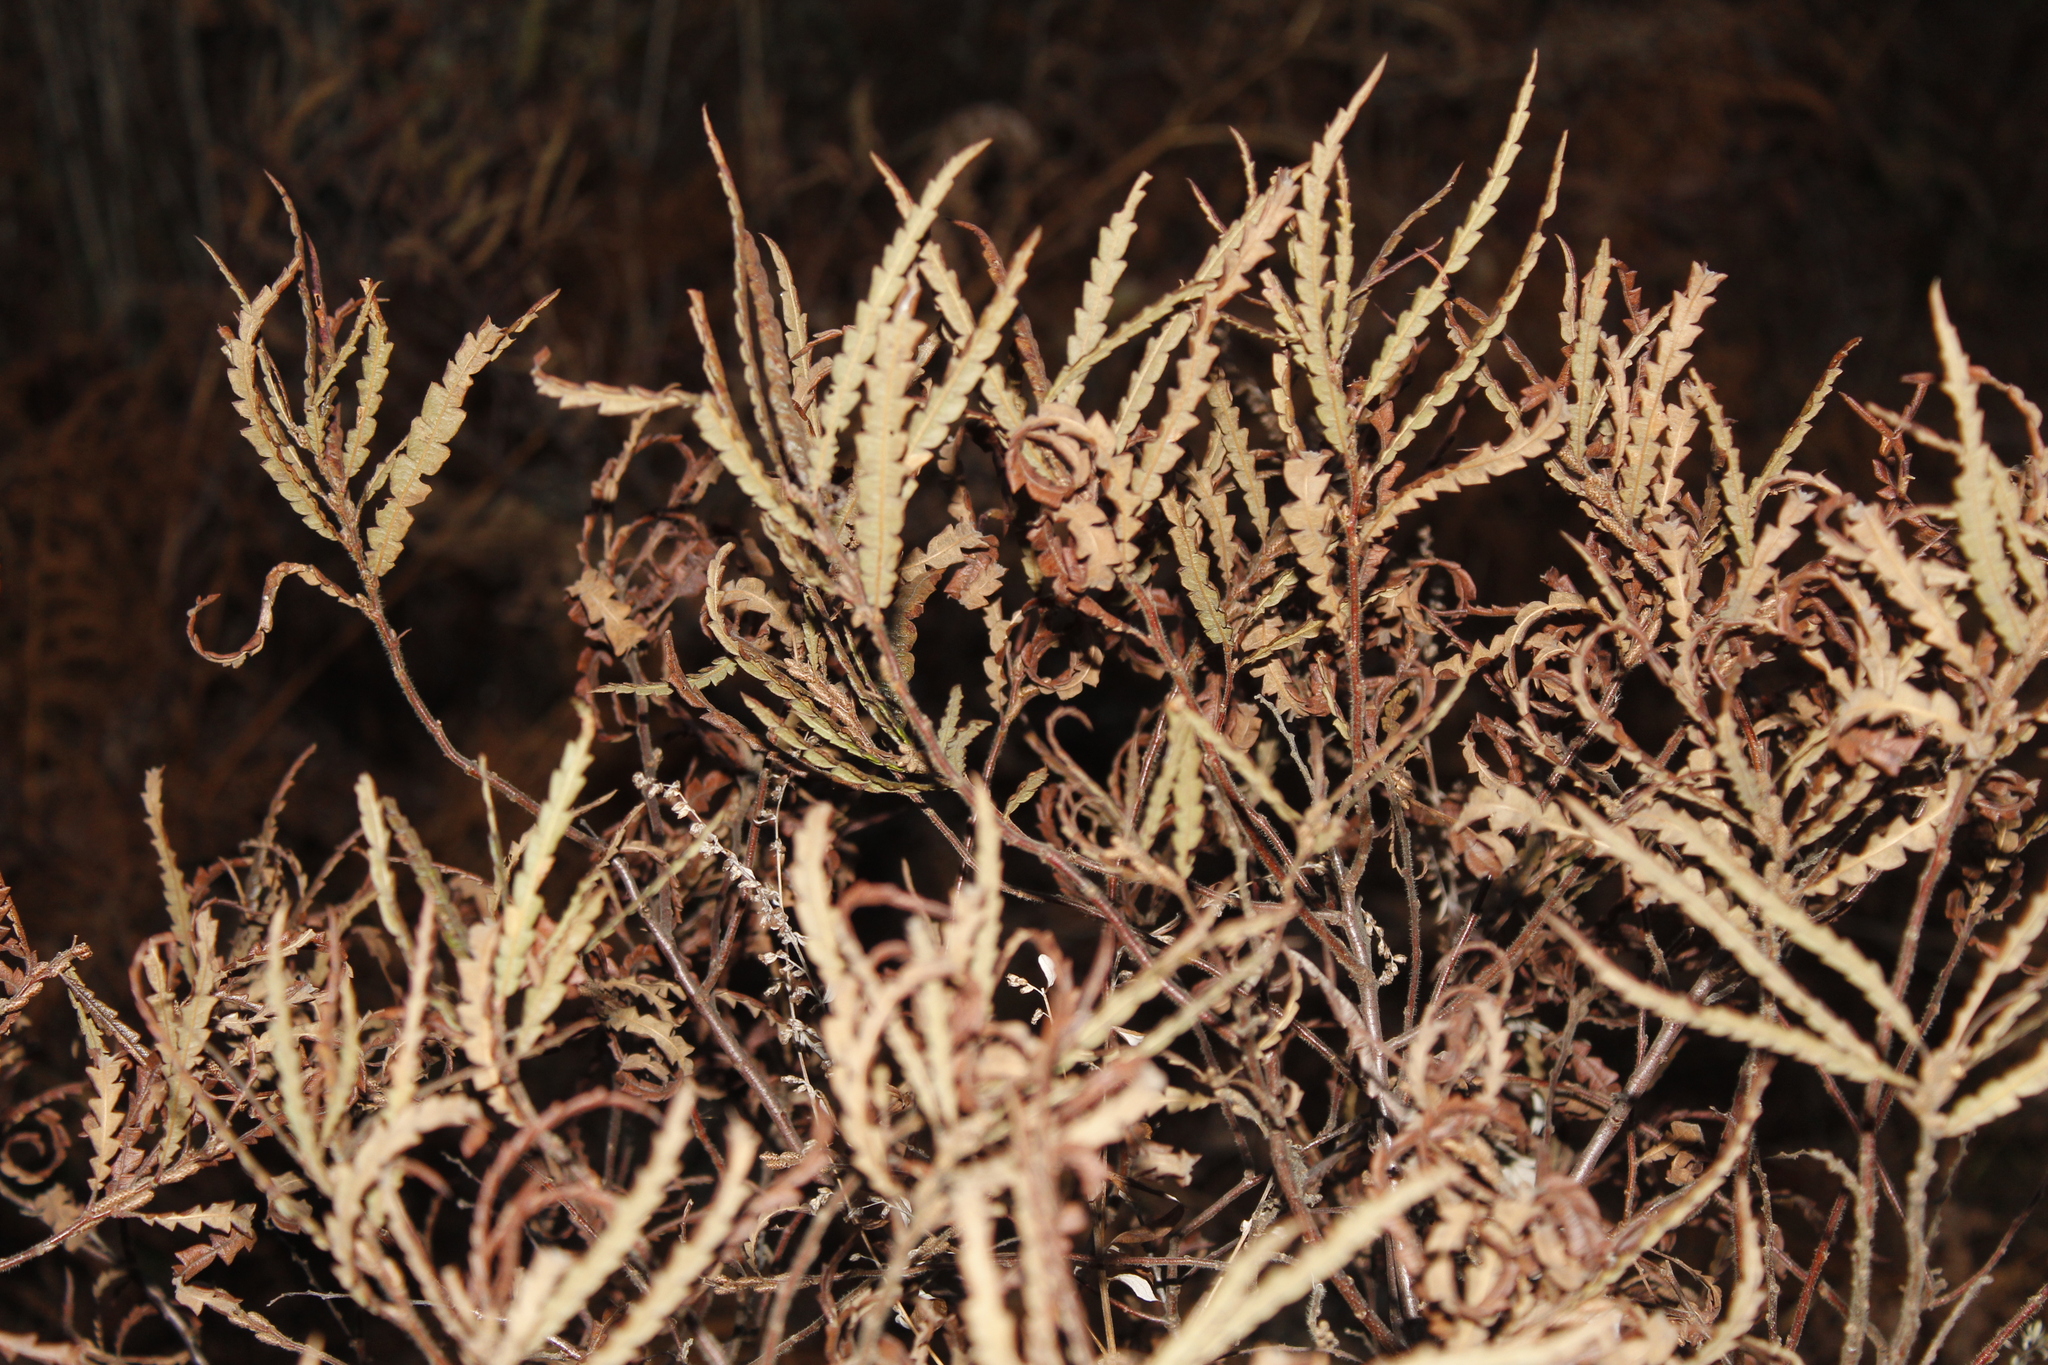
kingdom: Plantae
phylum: Tracheophyta
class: Magnoliopsida
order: Fagales
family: Myricaceae
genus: Comptonia
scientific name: Comptonia peregrina
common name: Sweet-fern
